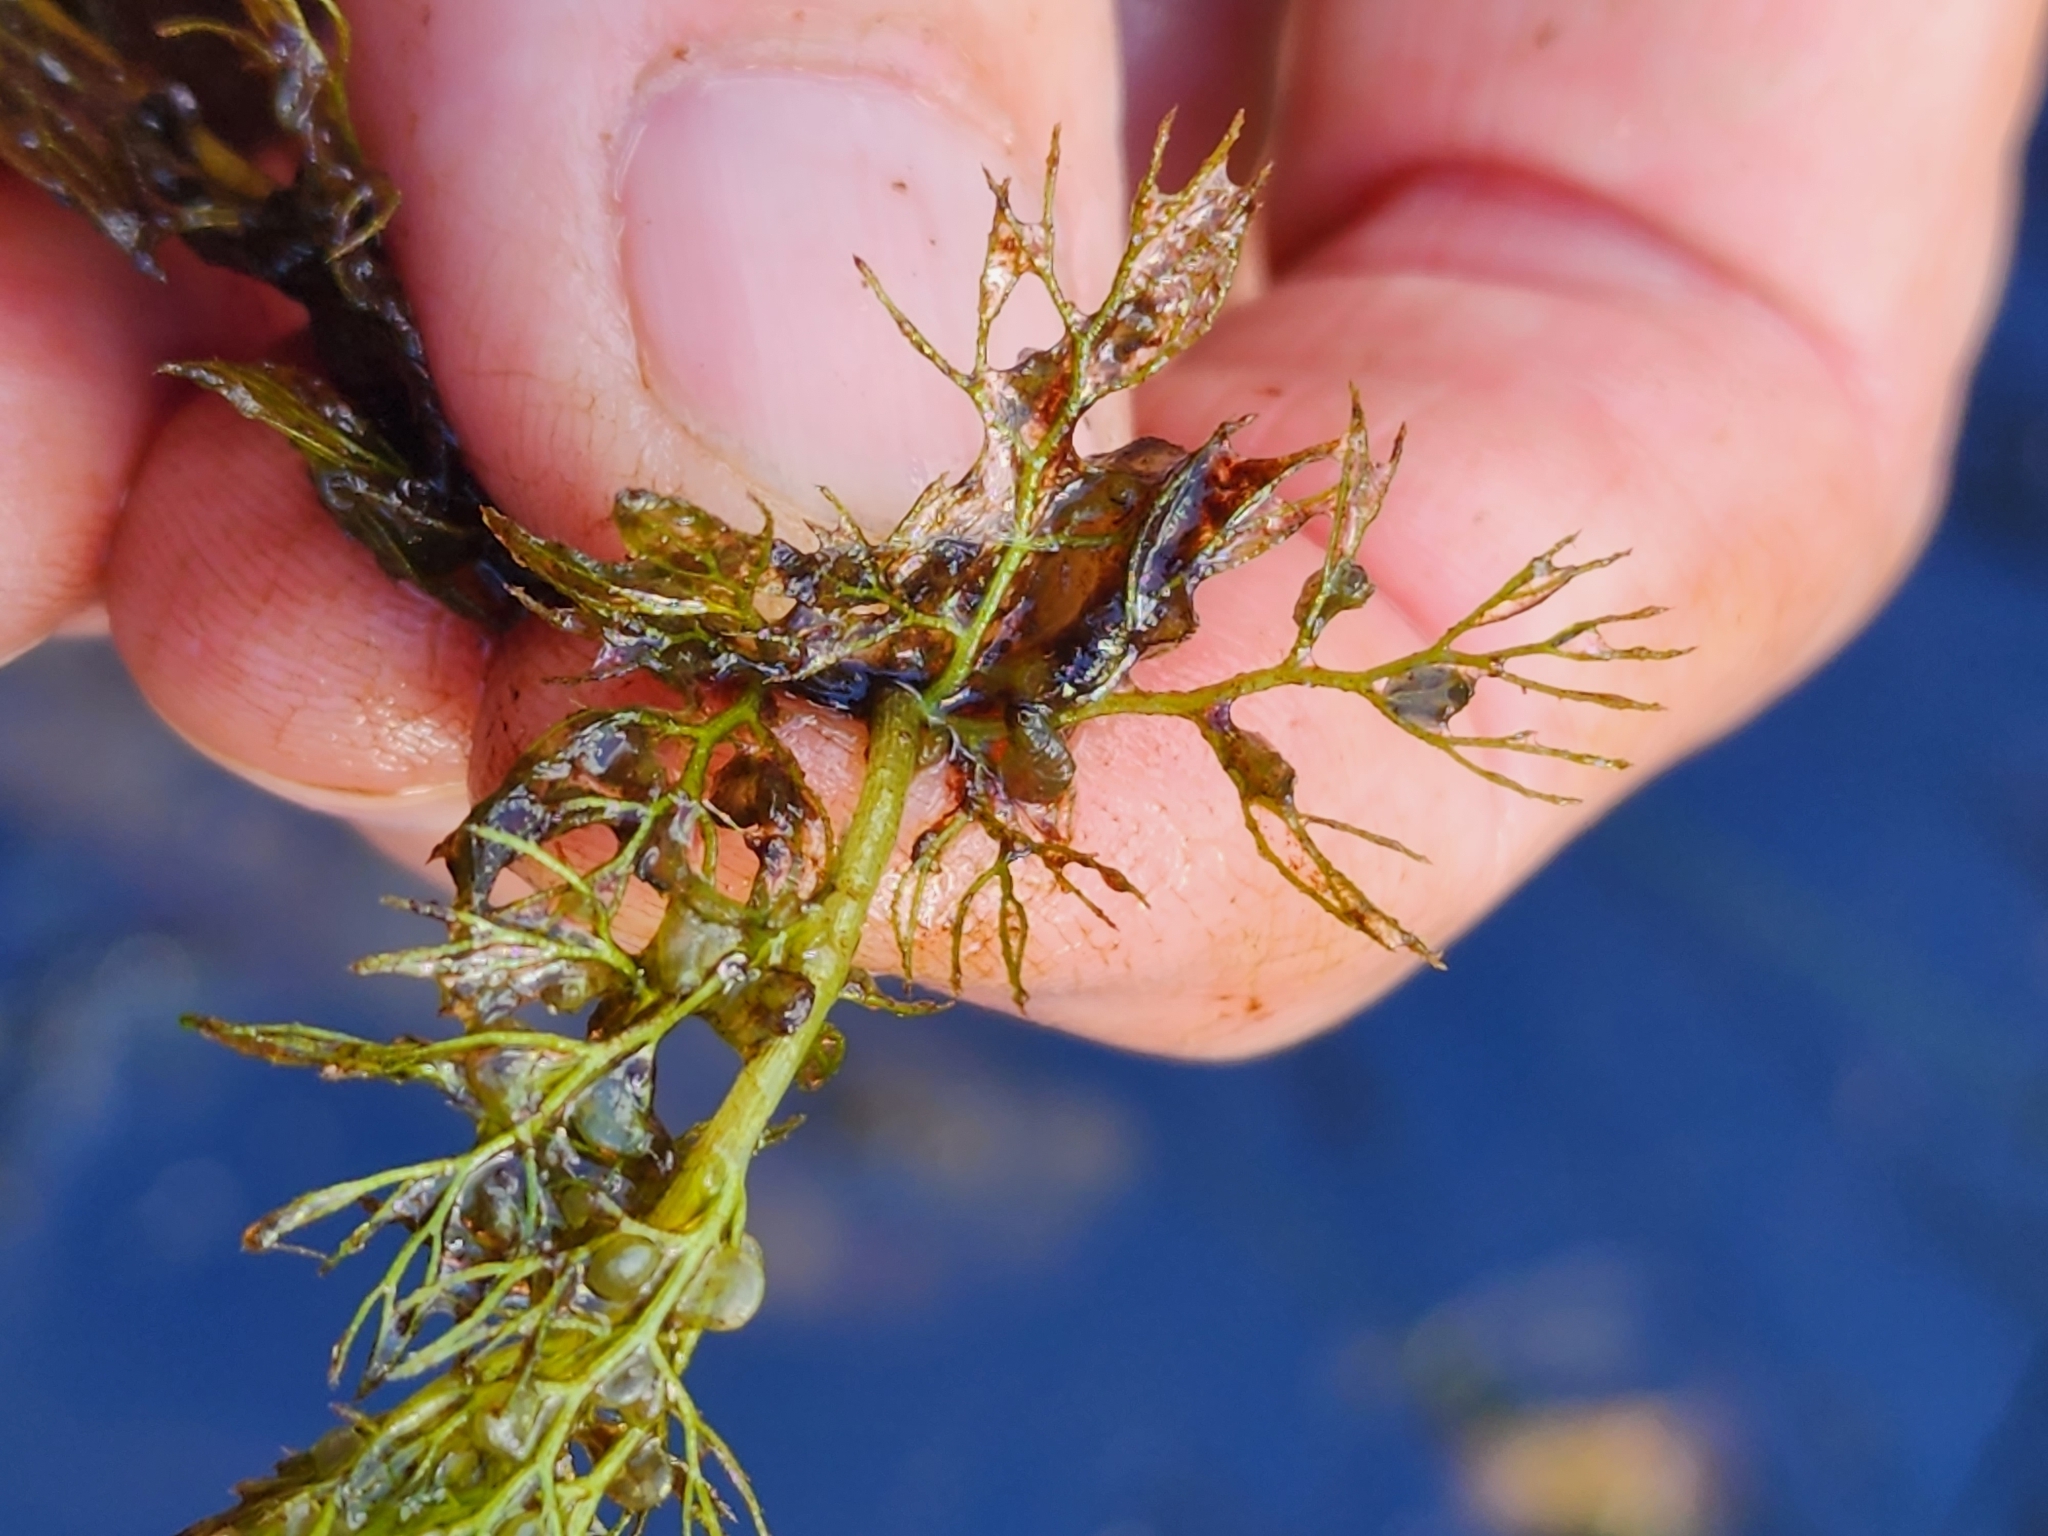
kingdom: Plantae
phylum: Tracheophyta
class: Magnoliopsida
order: Lamiales
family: Lentibulariaceae
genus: Utricularia
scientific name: Utricularia macrorhiza
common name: Common bladderwort
